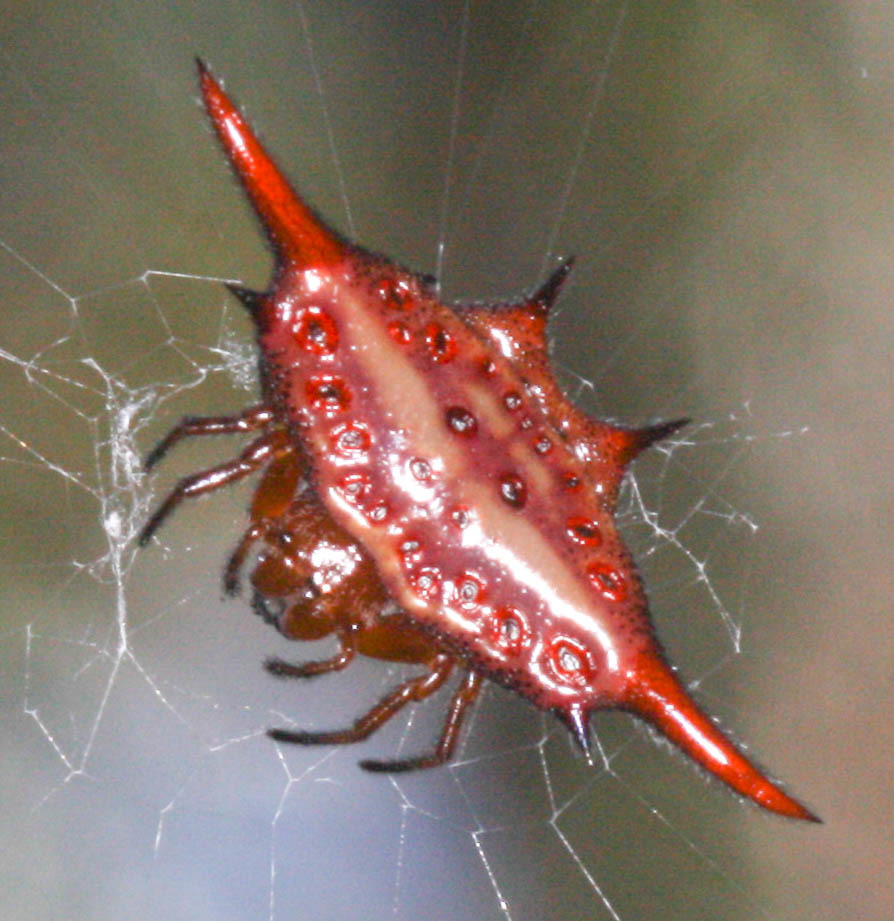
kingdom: Animalia
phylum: Arthropoda
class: Arachnida
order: Araneae
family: Araneidae
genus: Gasteracantha
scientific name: Gasteracantha versicolor
